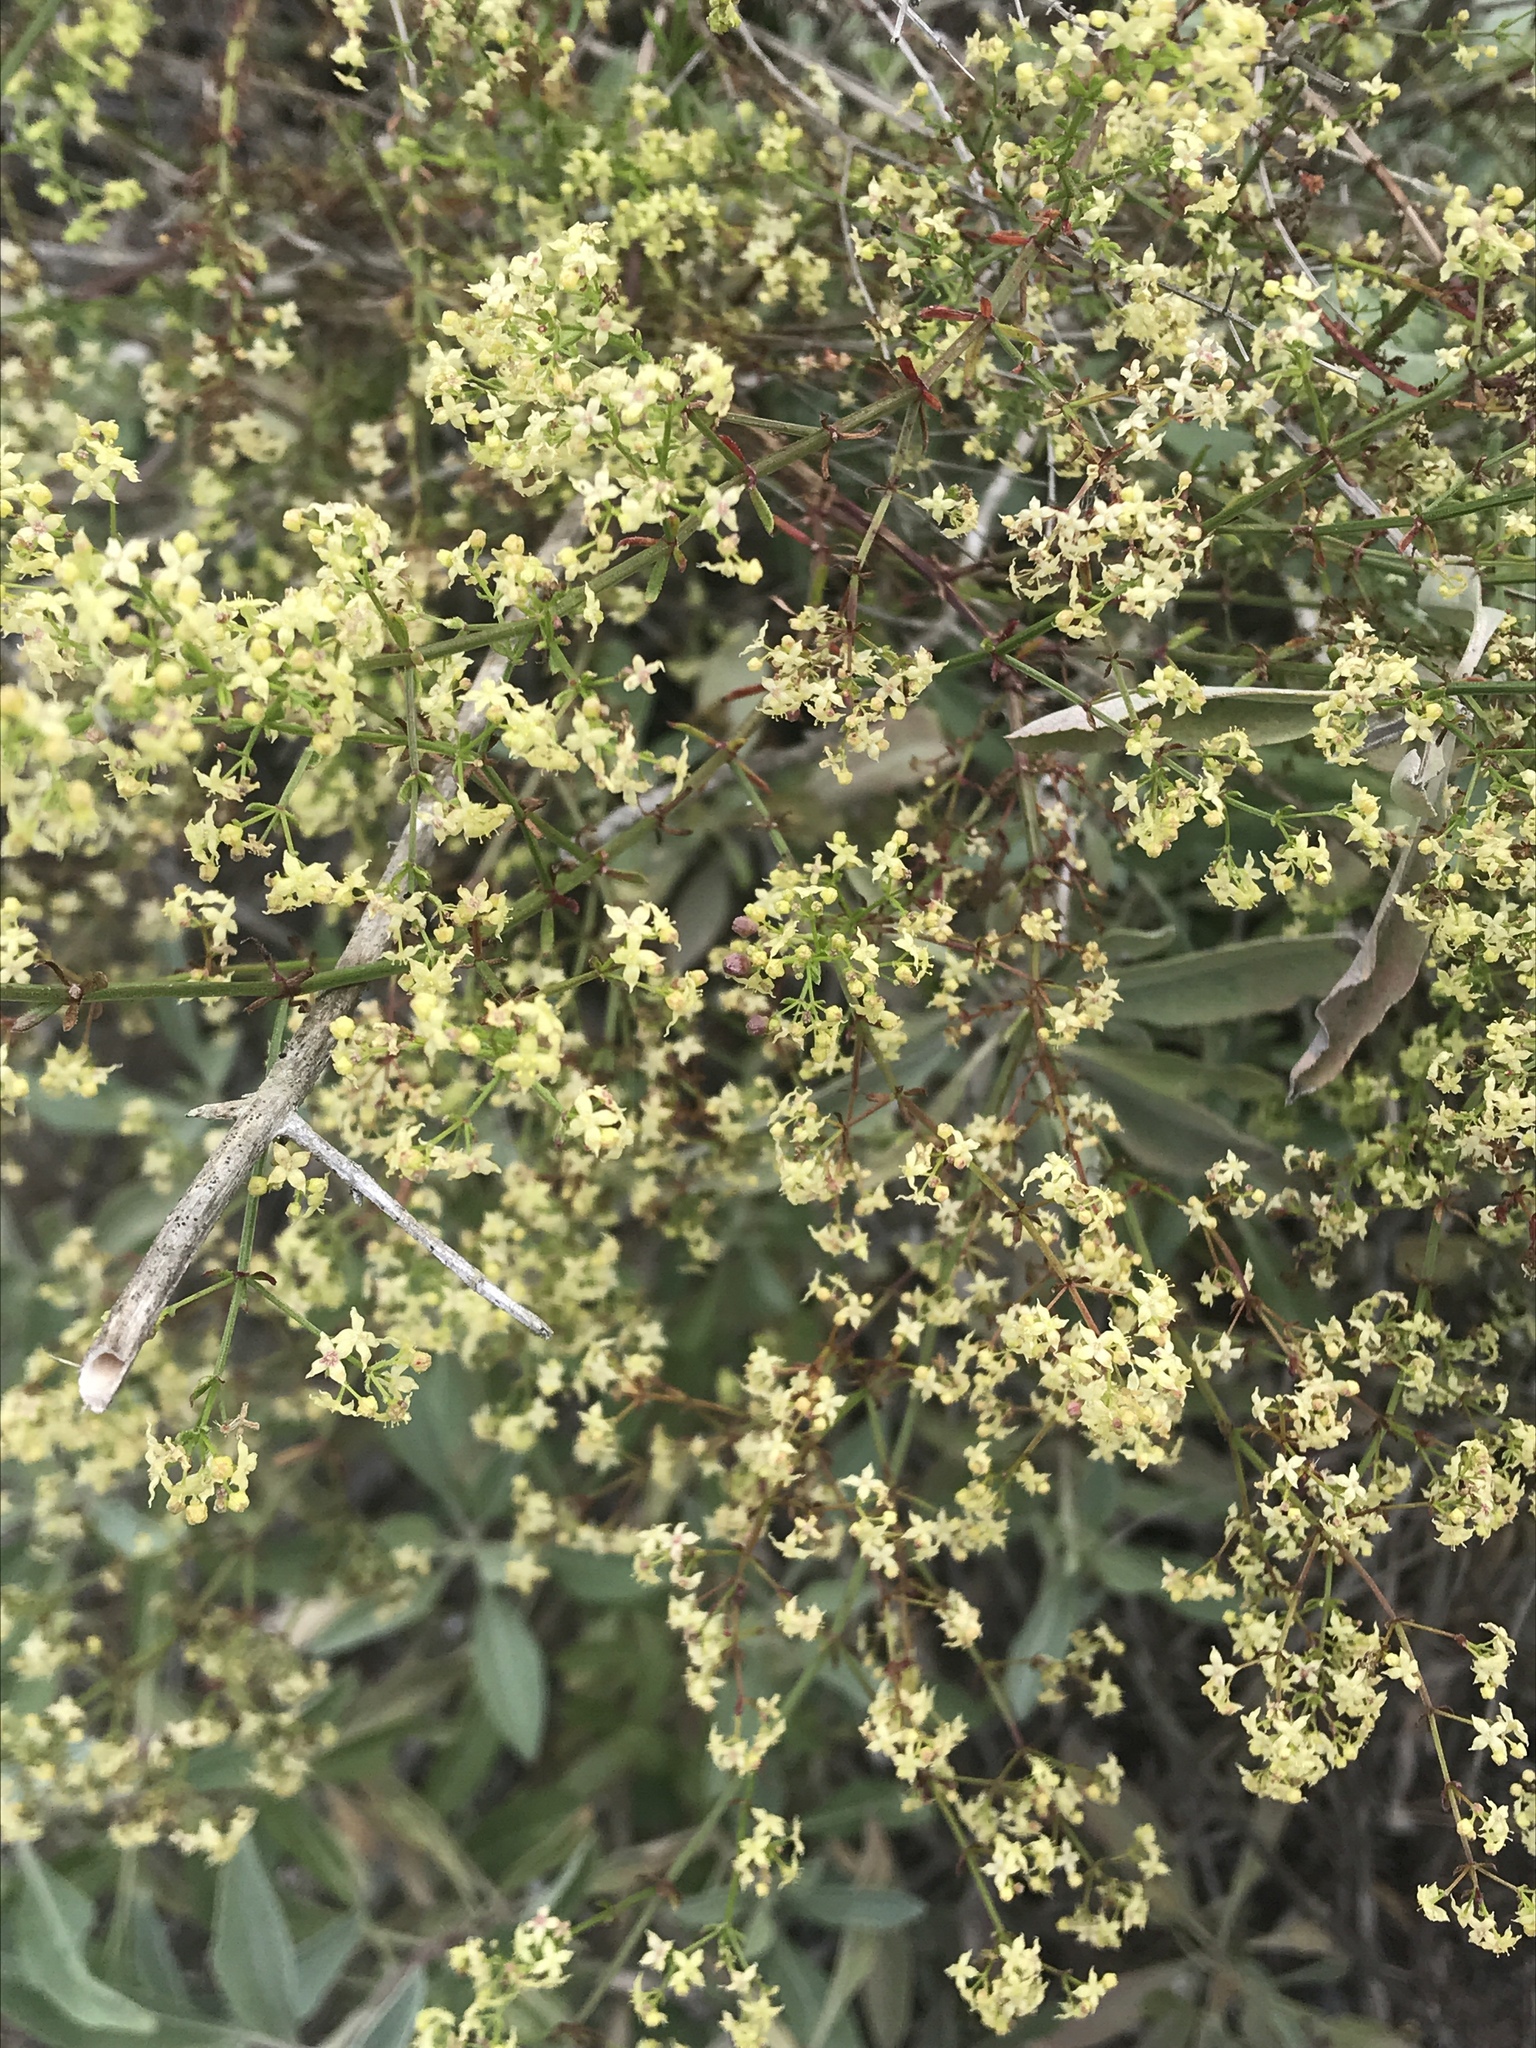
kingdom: Plantae
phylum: Tracheophyta
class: Magnoliopsida
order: Gentianales
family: Rubiaceae
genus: Galium
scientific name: Galium angustifolium
